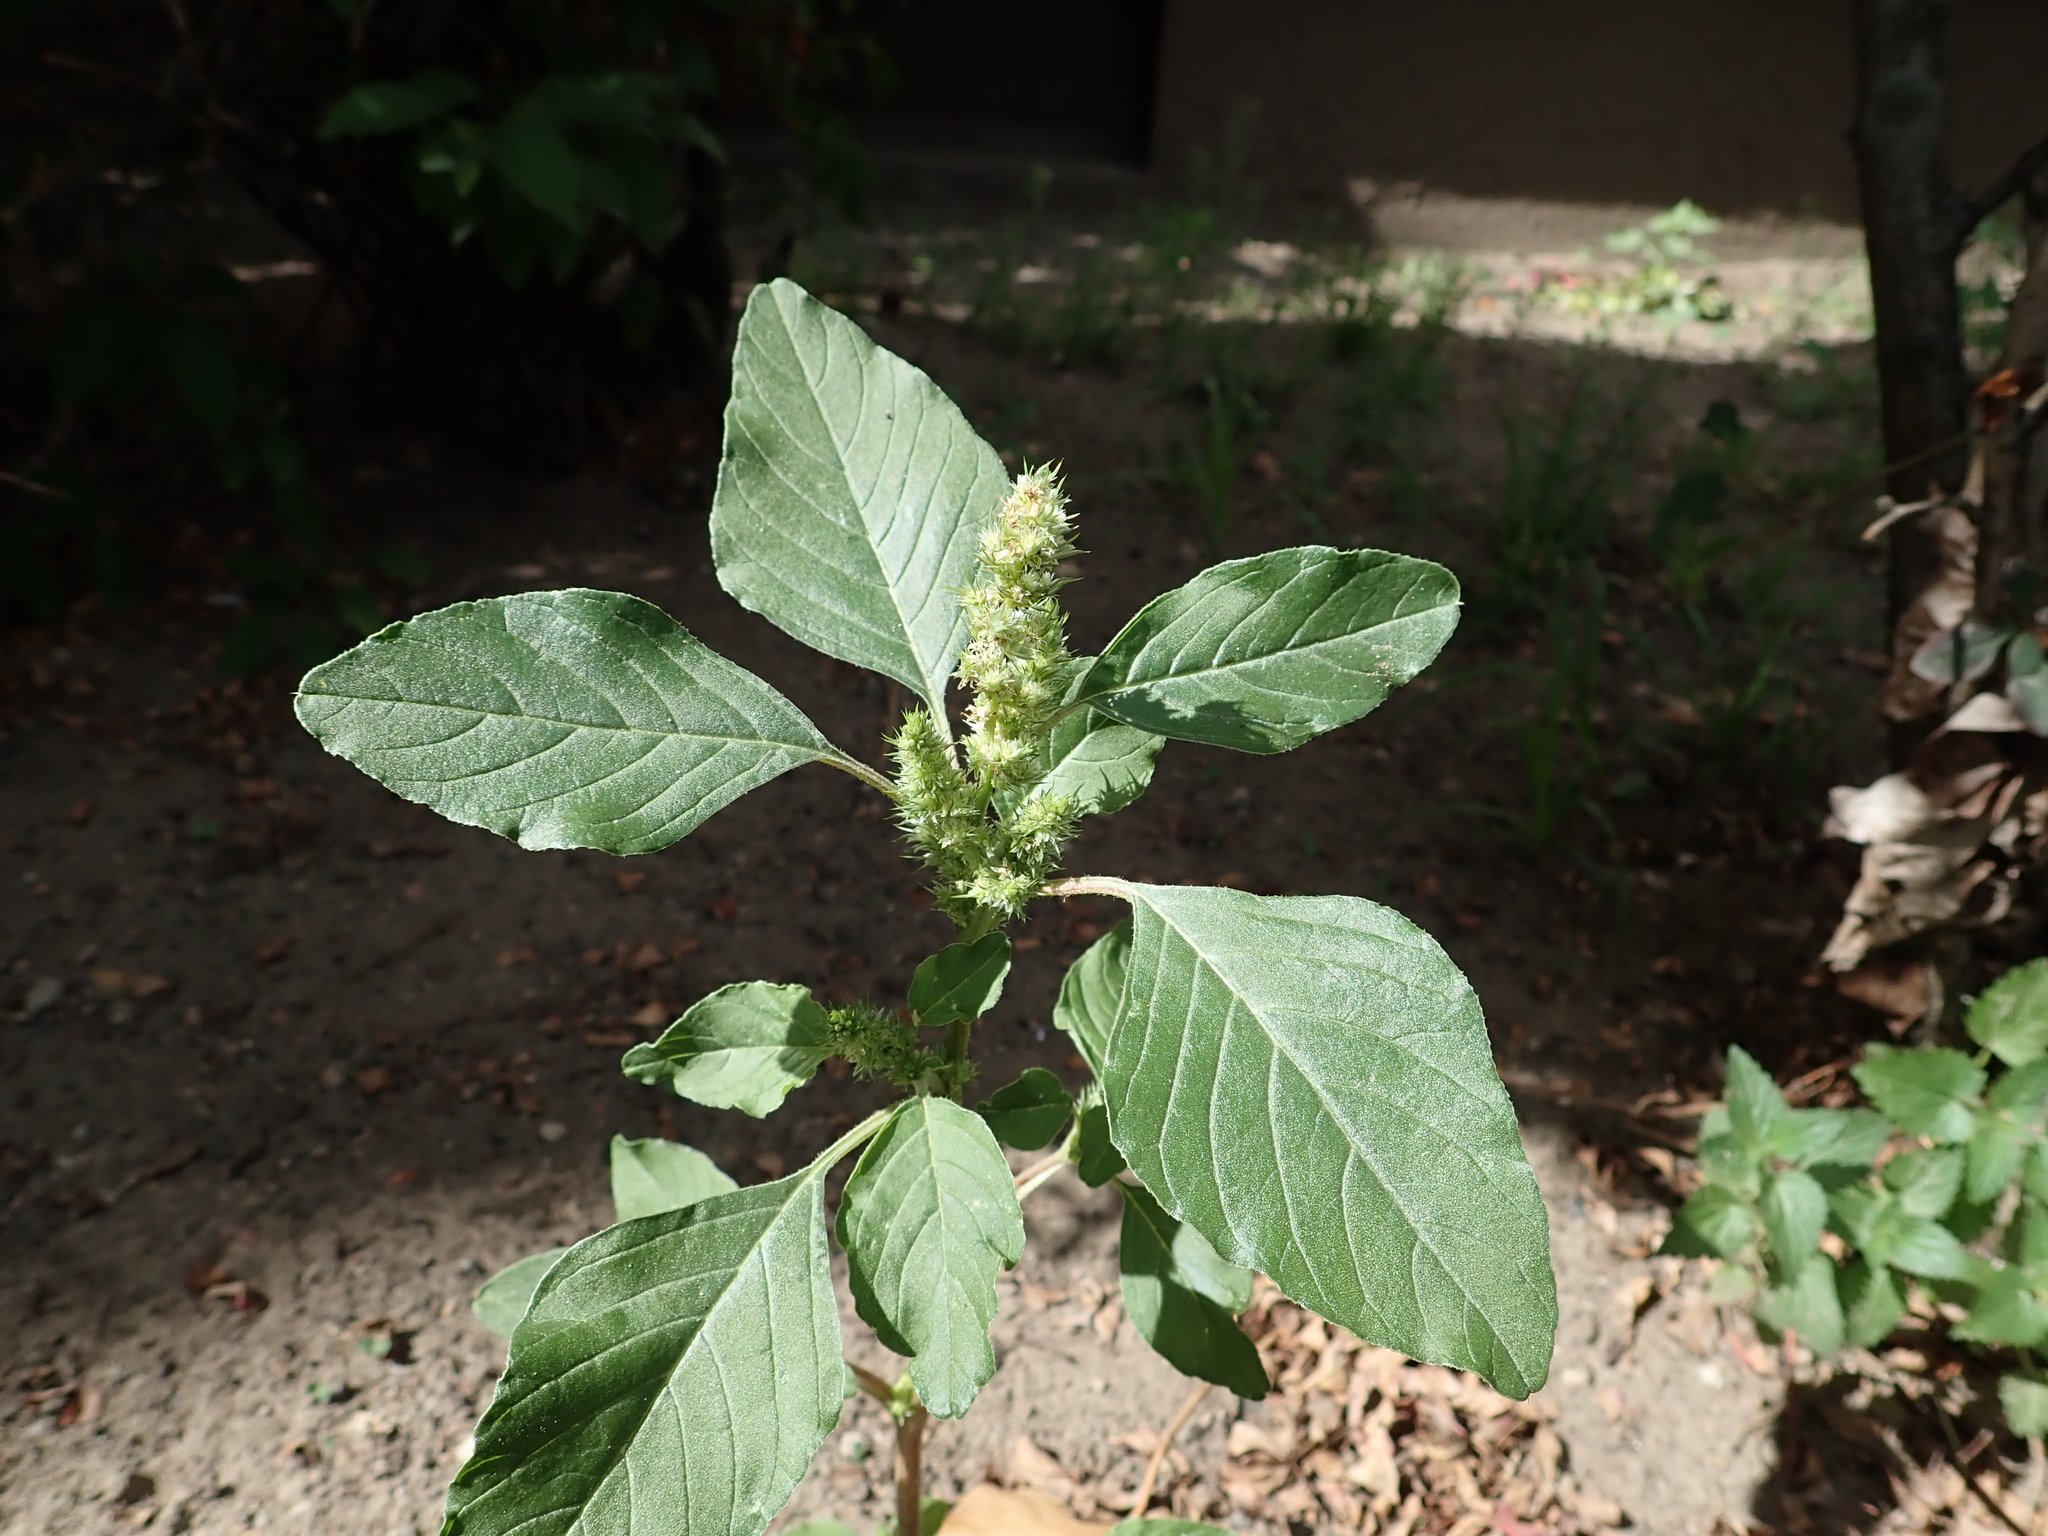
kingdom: Plantae
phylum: Tracheophyta
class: Magnoliopsida
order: Caryophyllales
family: Amaranthaceae
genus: Amaranthus
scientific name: Amaranthus retroflexus
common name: Redroot amaranth
